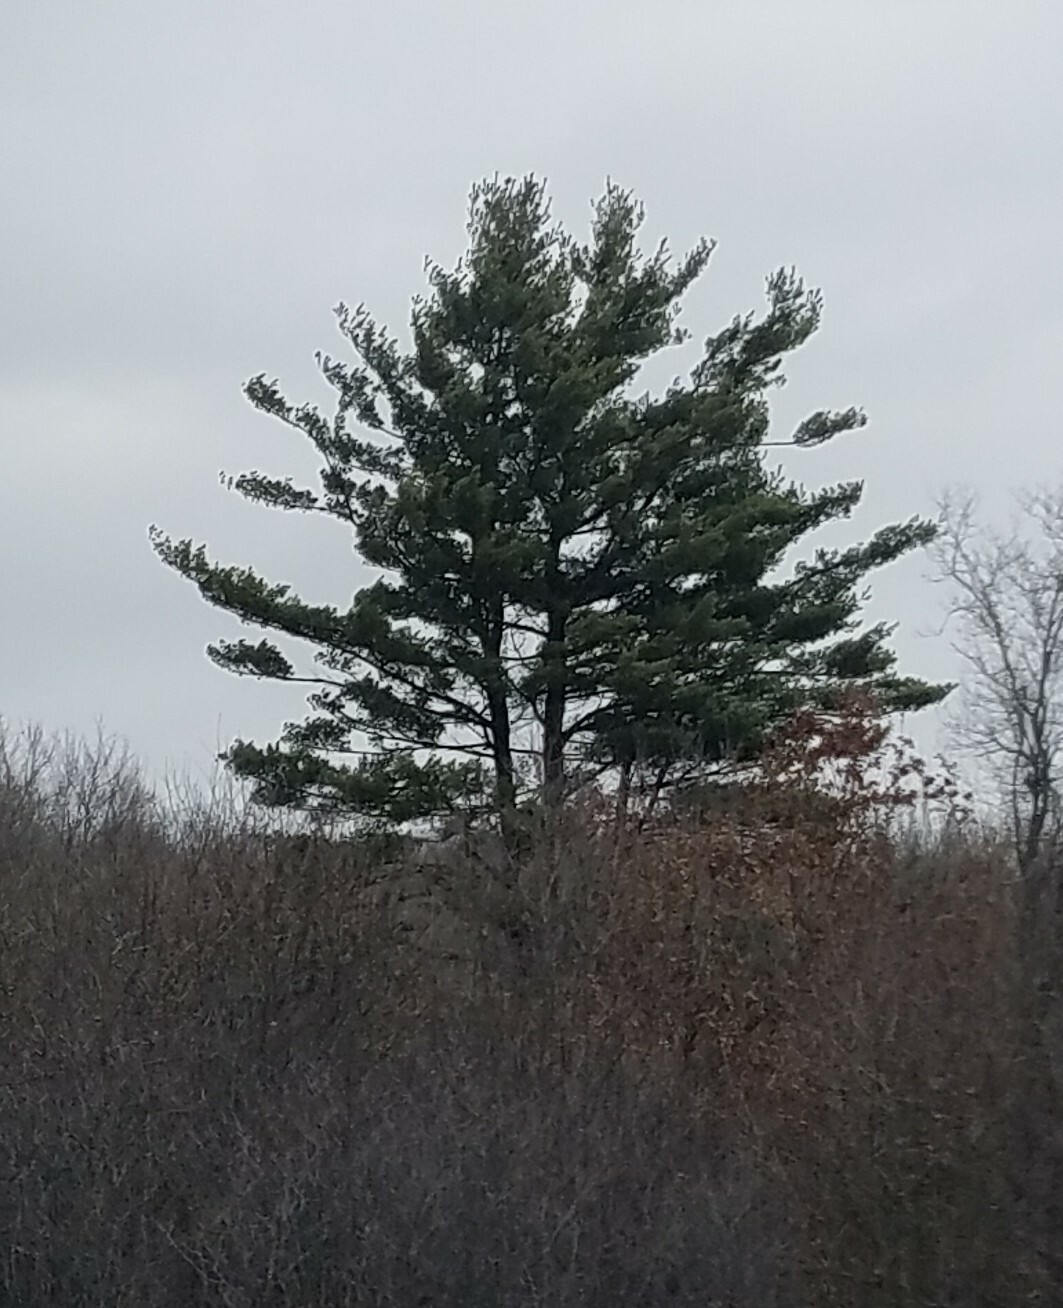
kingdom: Plantae
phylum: Tracheophyta
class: Pinopsida
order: Pinales
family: Pinaceae
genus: Pinus
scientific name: Pinus strobus
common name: Weymouth pine
